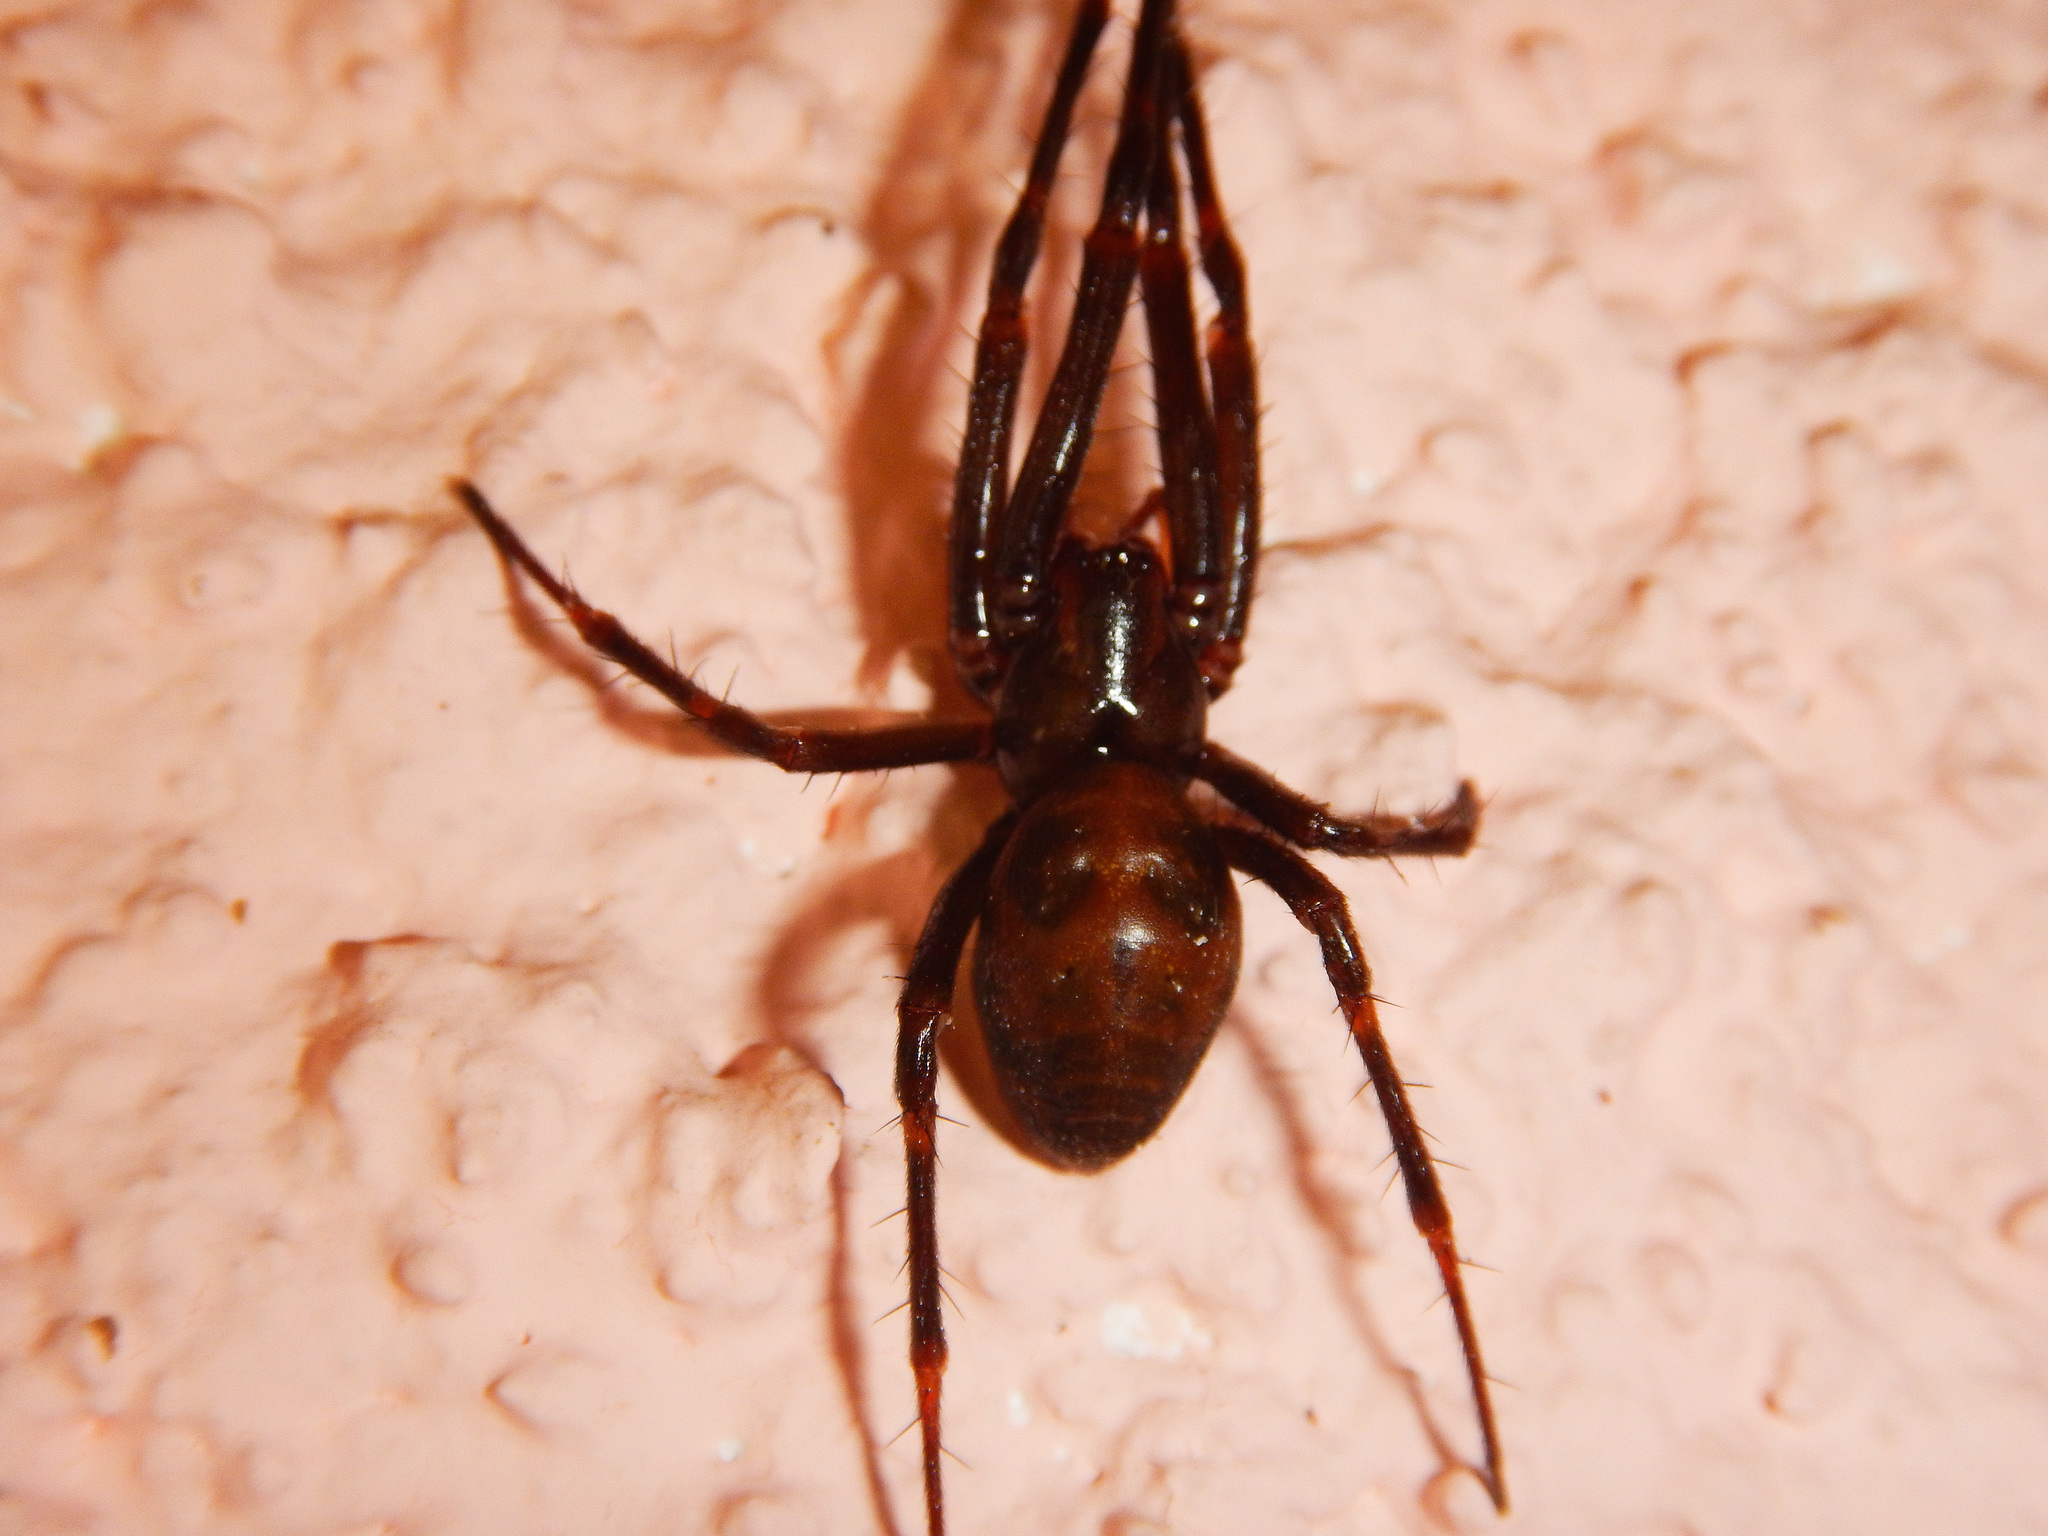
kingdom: Animalia
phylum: Arthropoda
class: Arachnida
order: Araneae
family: Tetragnathidae
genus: Meta
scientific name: Meta bourneti
